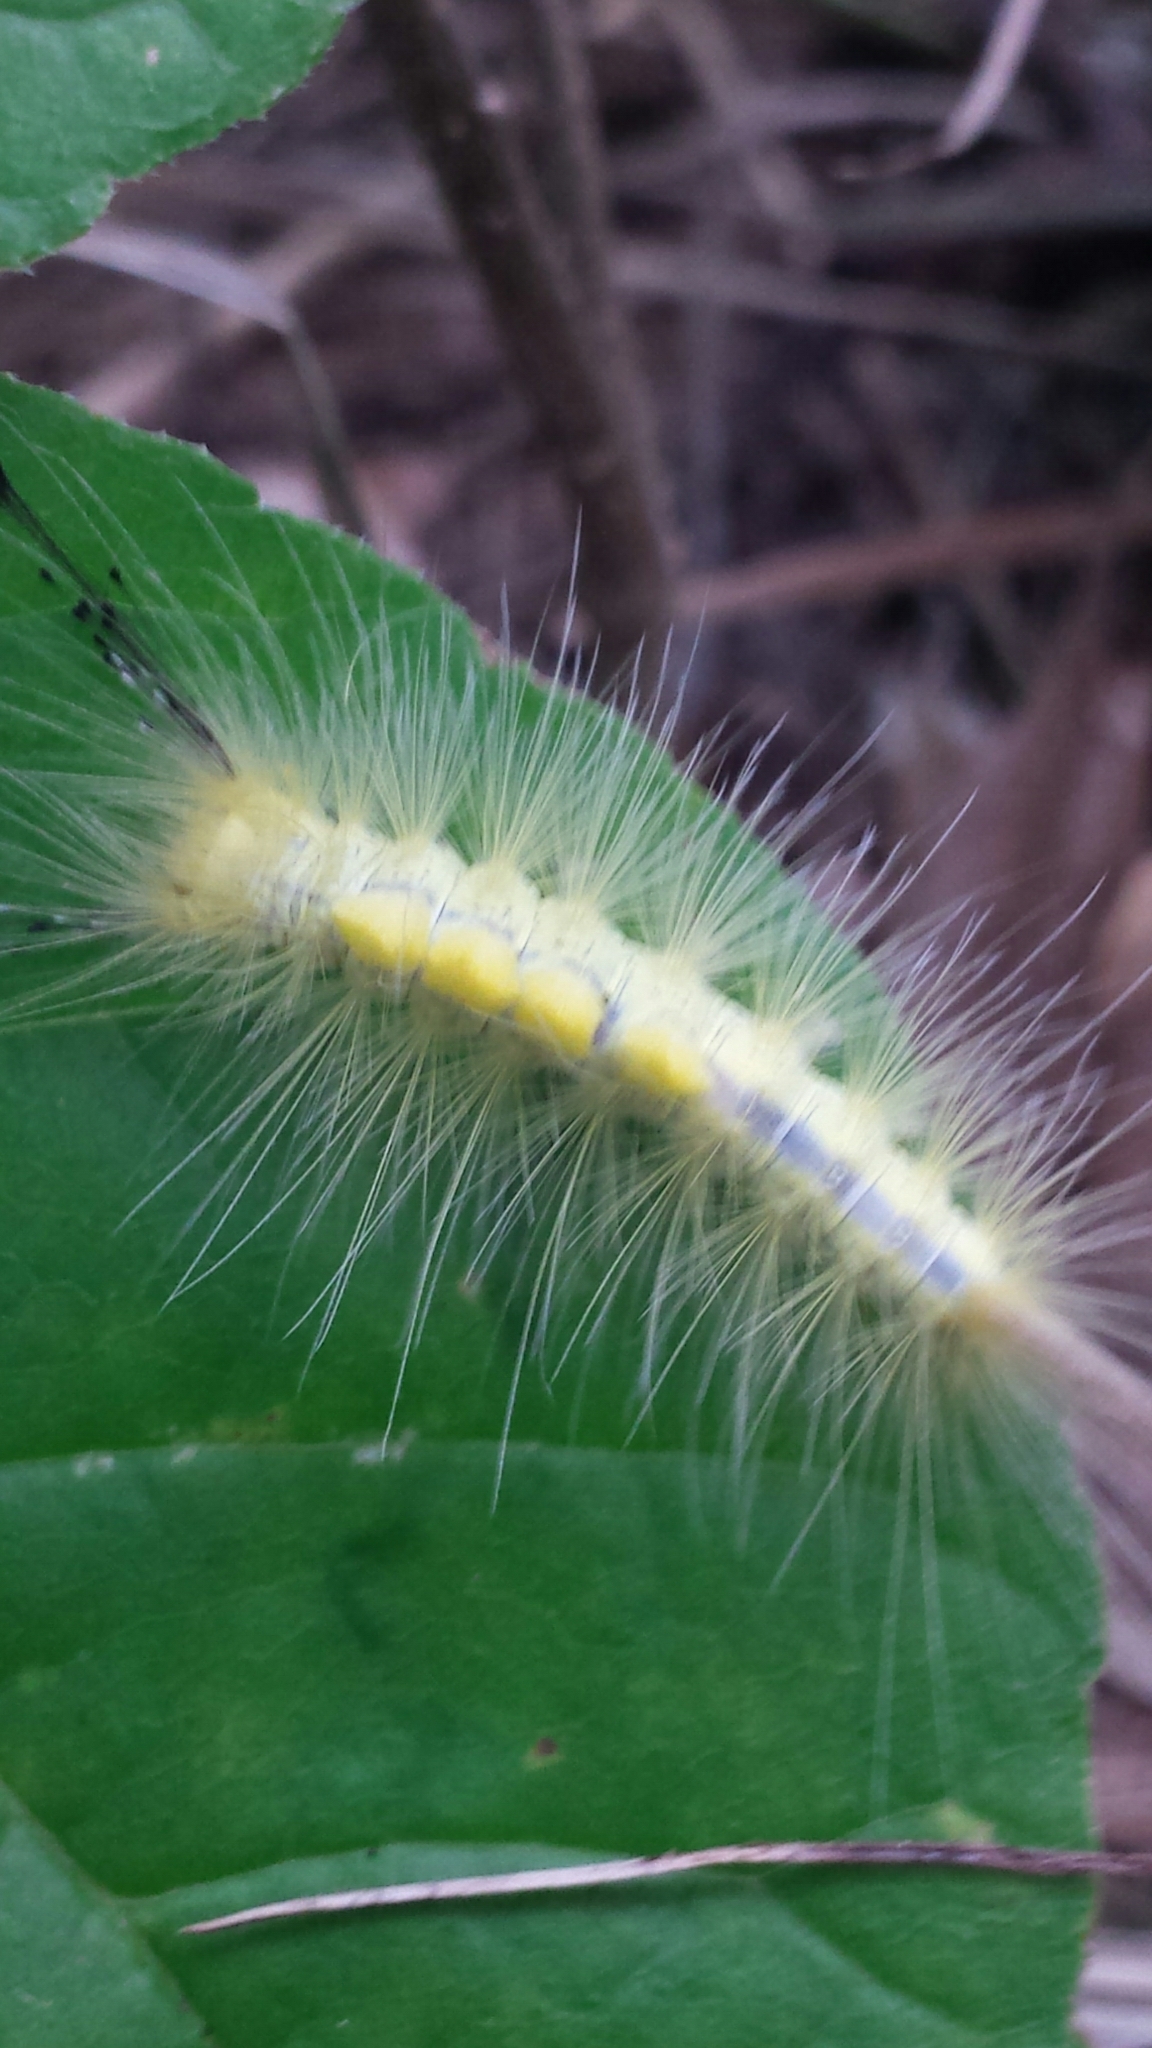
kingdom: Animalia
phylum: Arthropoda
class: Insecta
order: Lepidoptera
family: Erebidae
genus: Orgyia
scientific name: Orgyia definita
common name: Definite tussock moth
